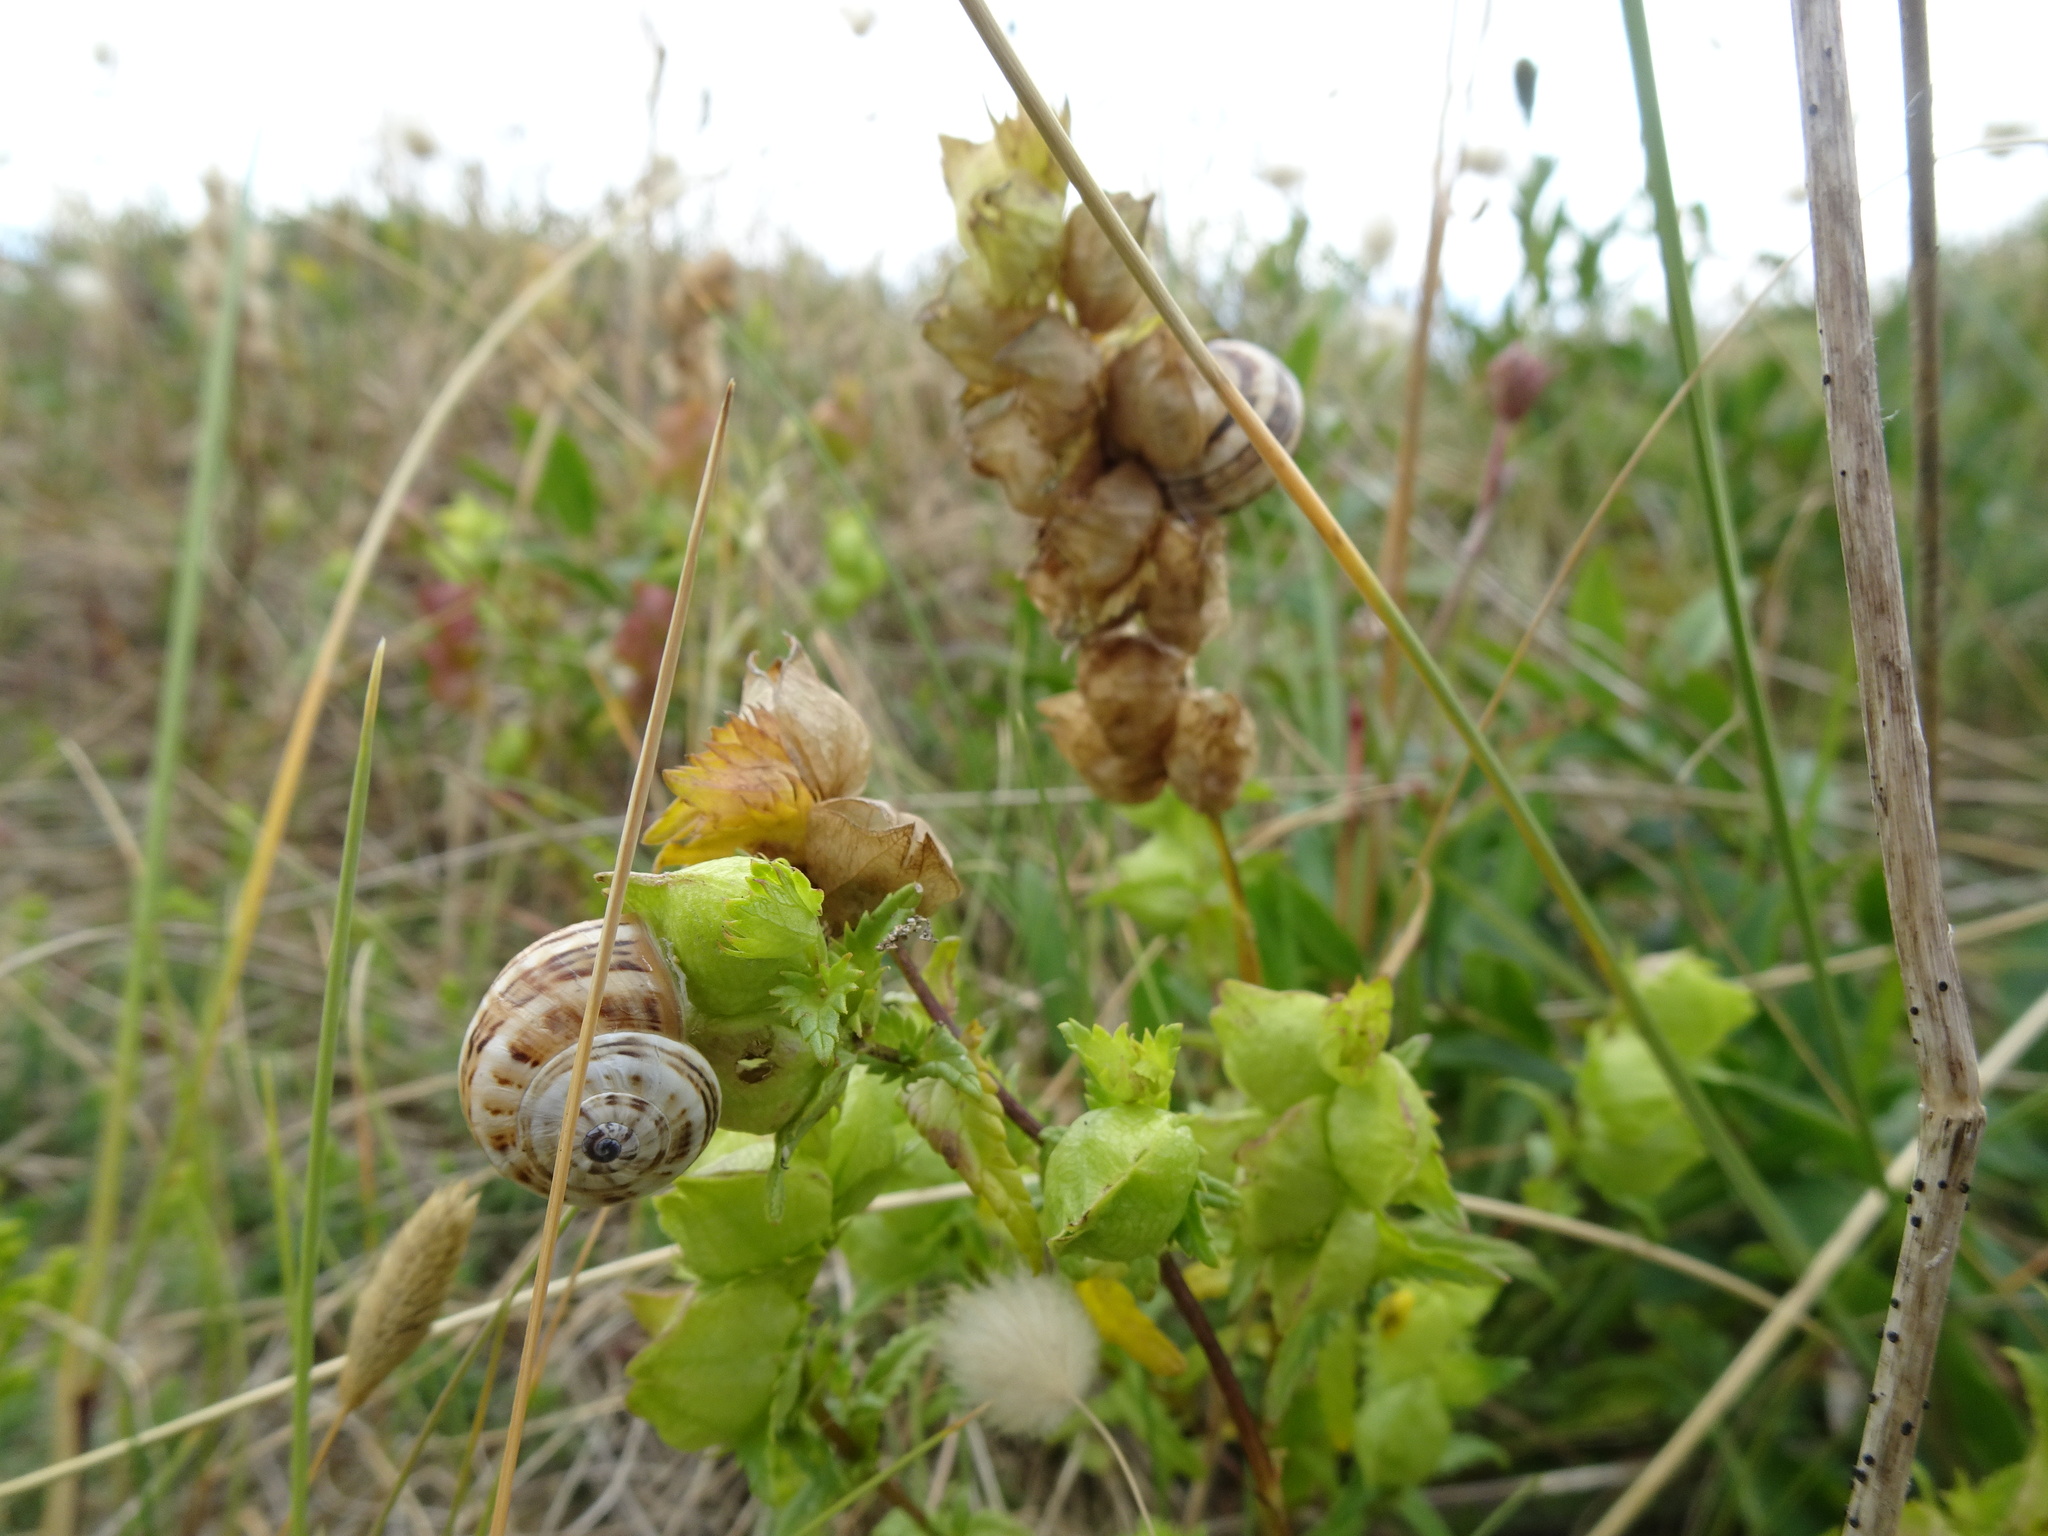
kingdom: Plantae
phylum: Tracheophyta
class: Magnoliopsida
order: Lamiales
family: Orobanchaceae
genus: Rhinanthus
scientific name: Rhinanthus minor
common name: Yellow-rattle
